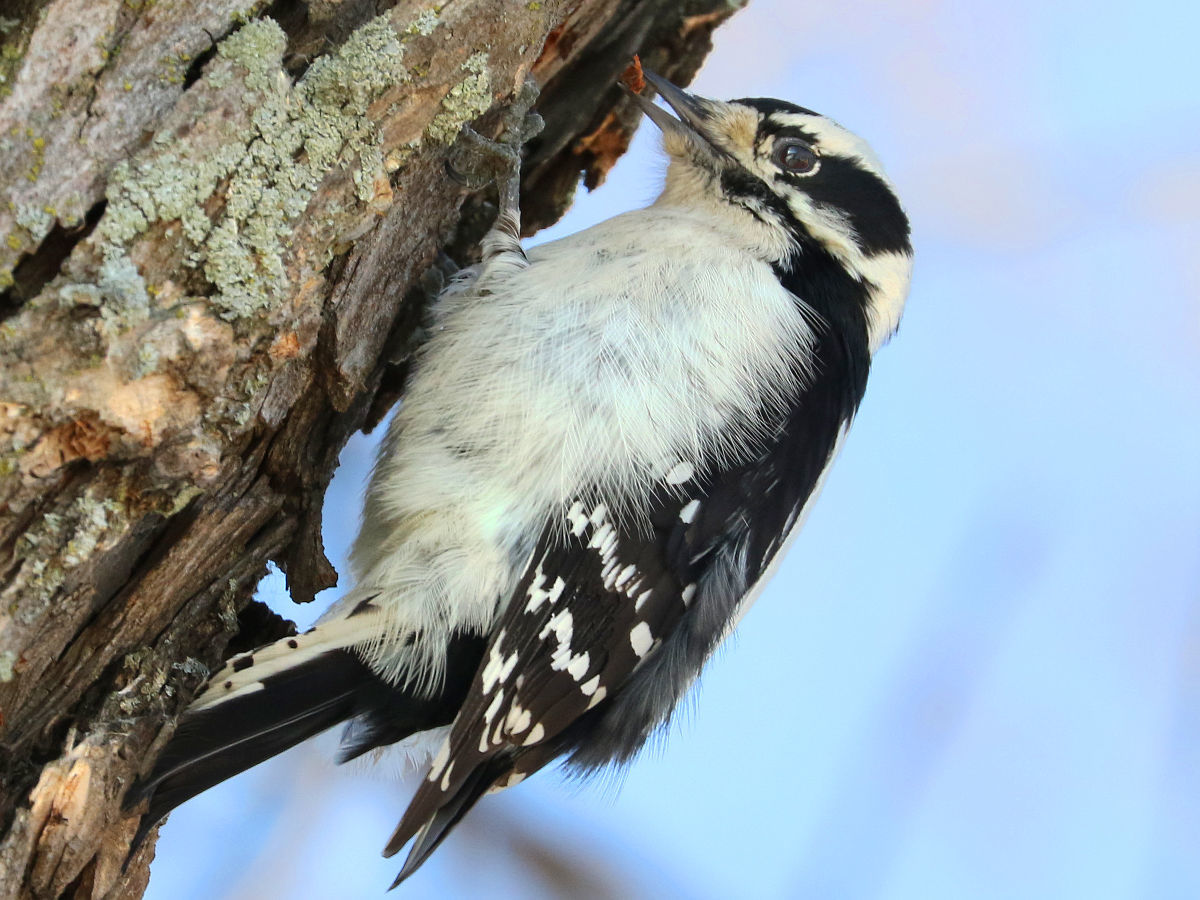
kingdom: Animalia
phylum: Chordata
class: Aves
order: Piciformes
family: Picidae
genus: Dryobates
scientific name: Dryobates pubescens
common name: Downy woodpecker
